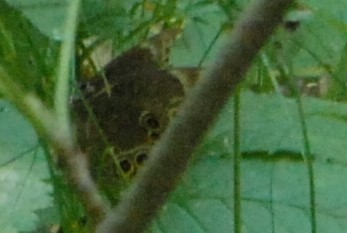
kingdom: Animalia
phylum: Arthropoda
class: Insecta
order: Lepidoptera
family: Nymphalidae
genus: Pararge
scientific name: Pararge Lopinga achine
